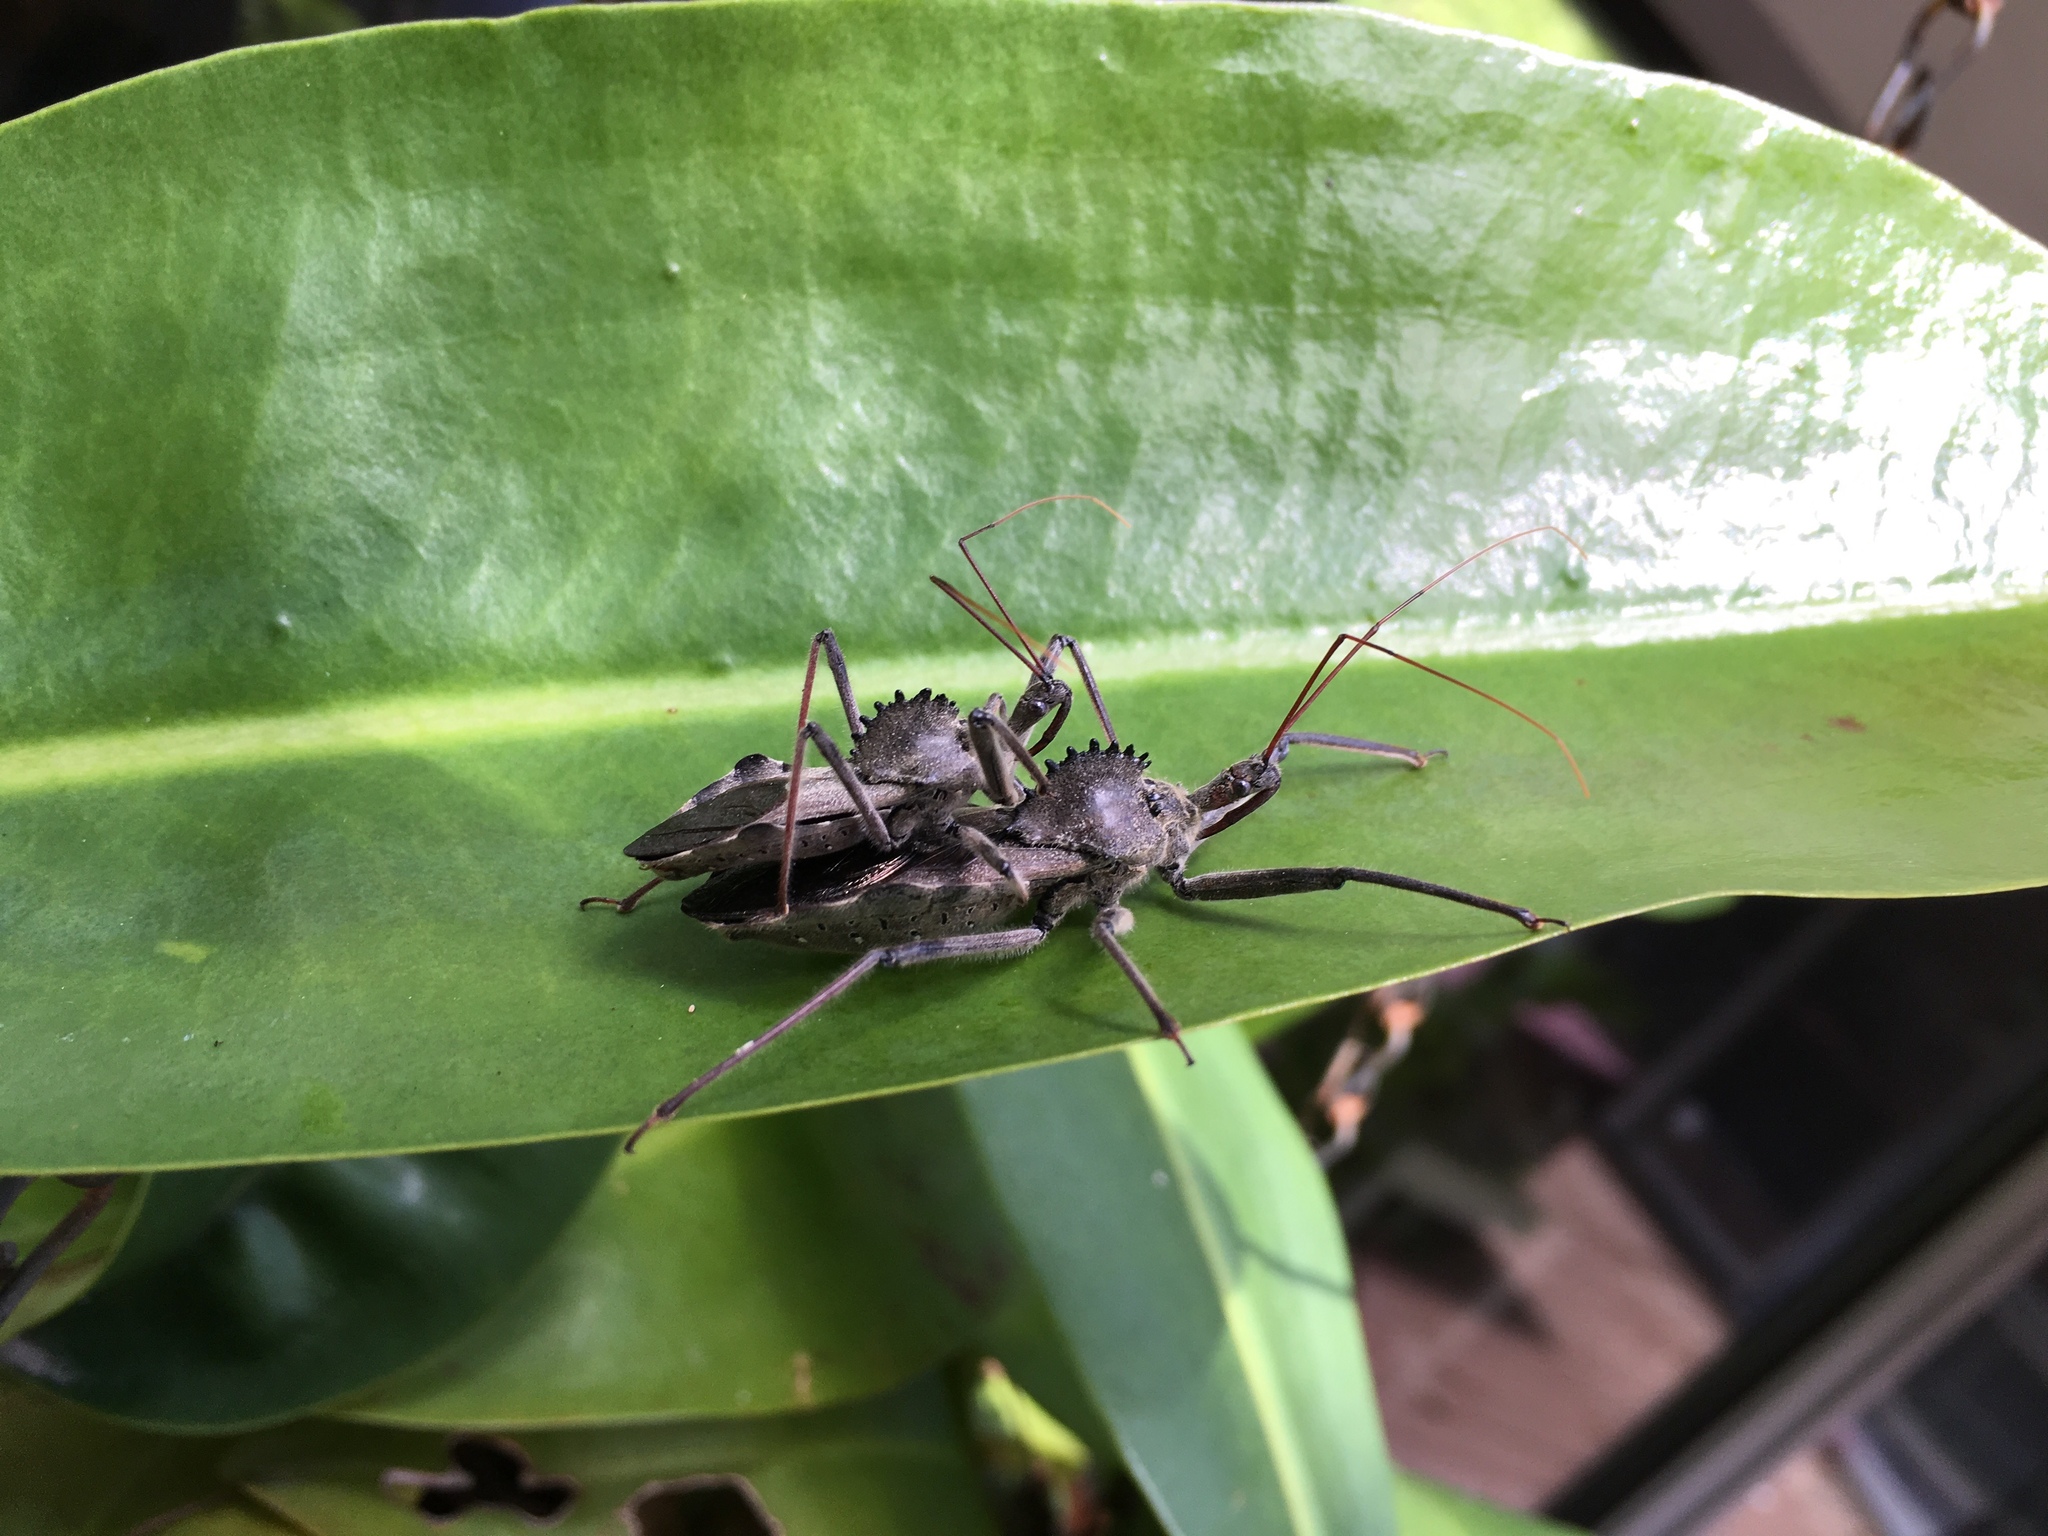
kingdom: Animalia
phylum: Arthropoda
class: Insecta
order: Hemiptera
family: Reduviidae
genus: Arilus
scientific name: Arilus cristatus
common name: North american wheel bug
